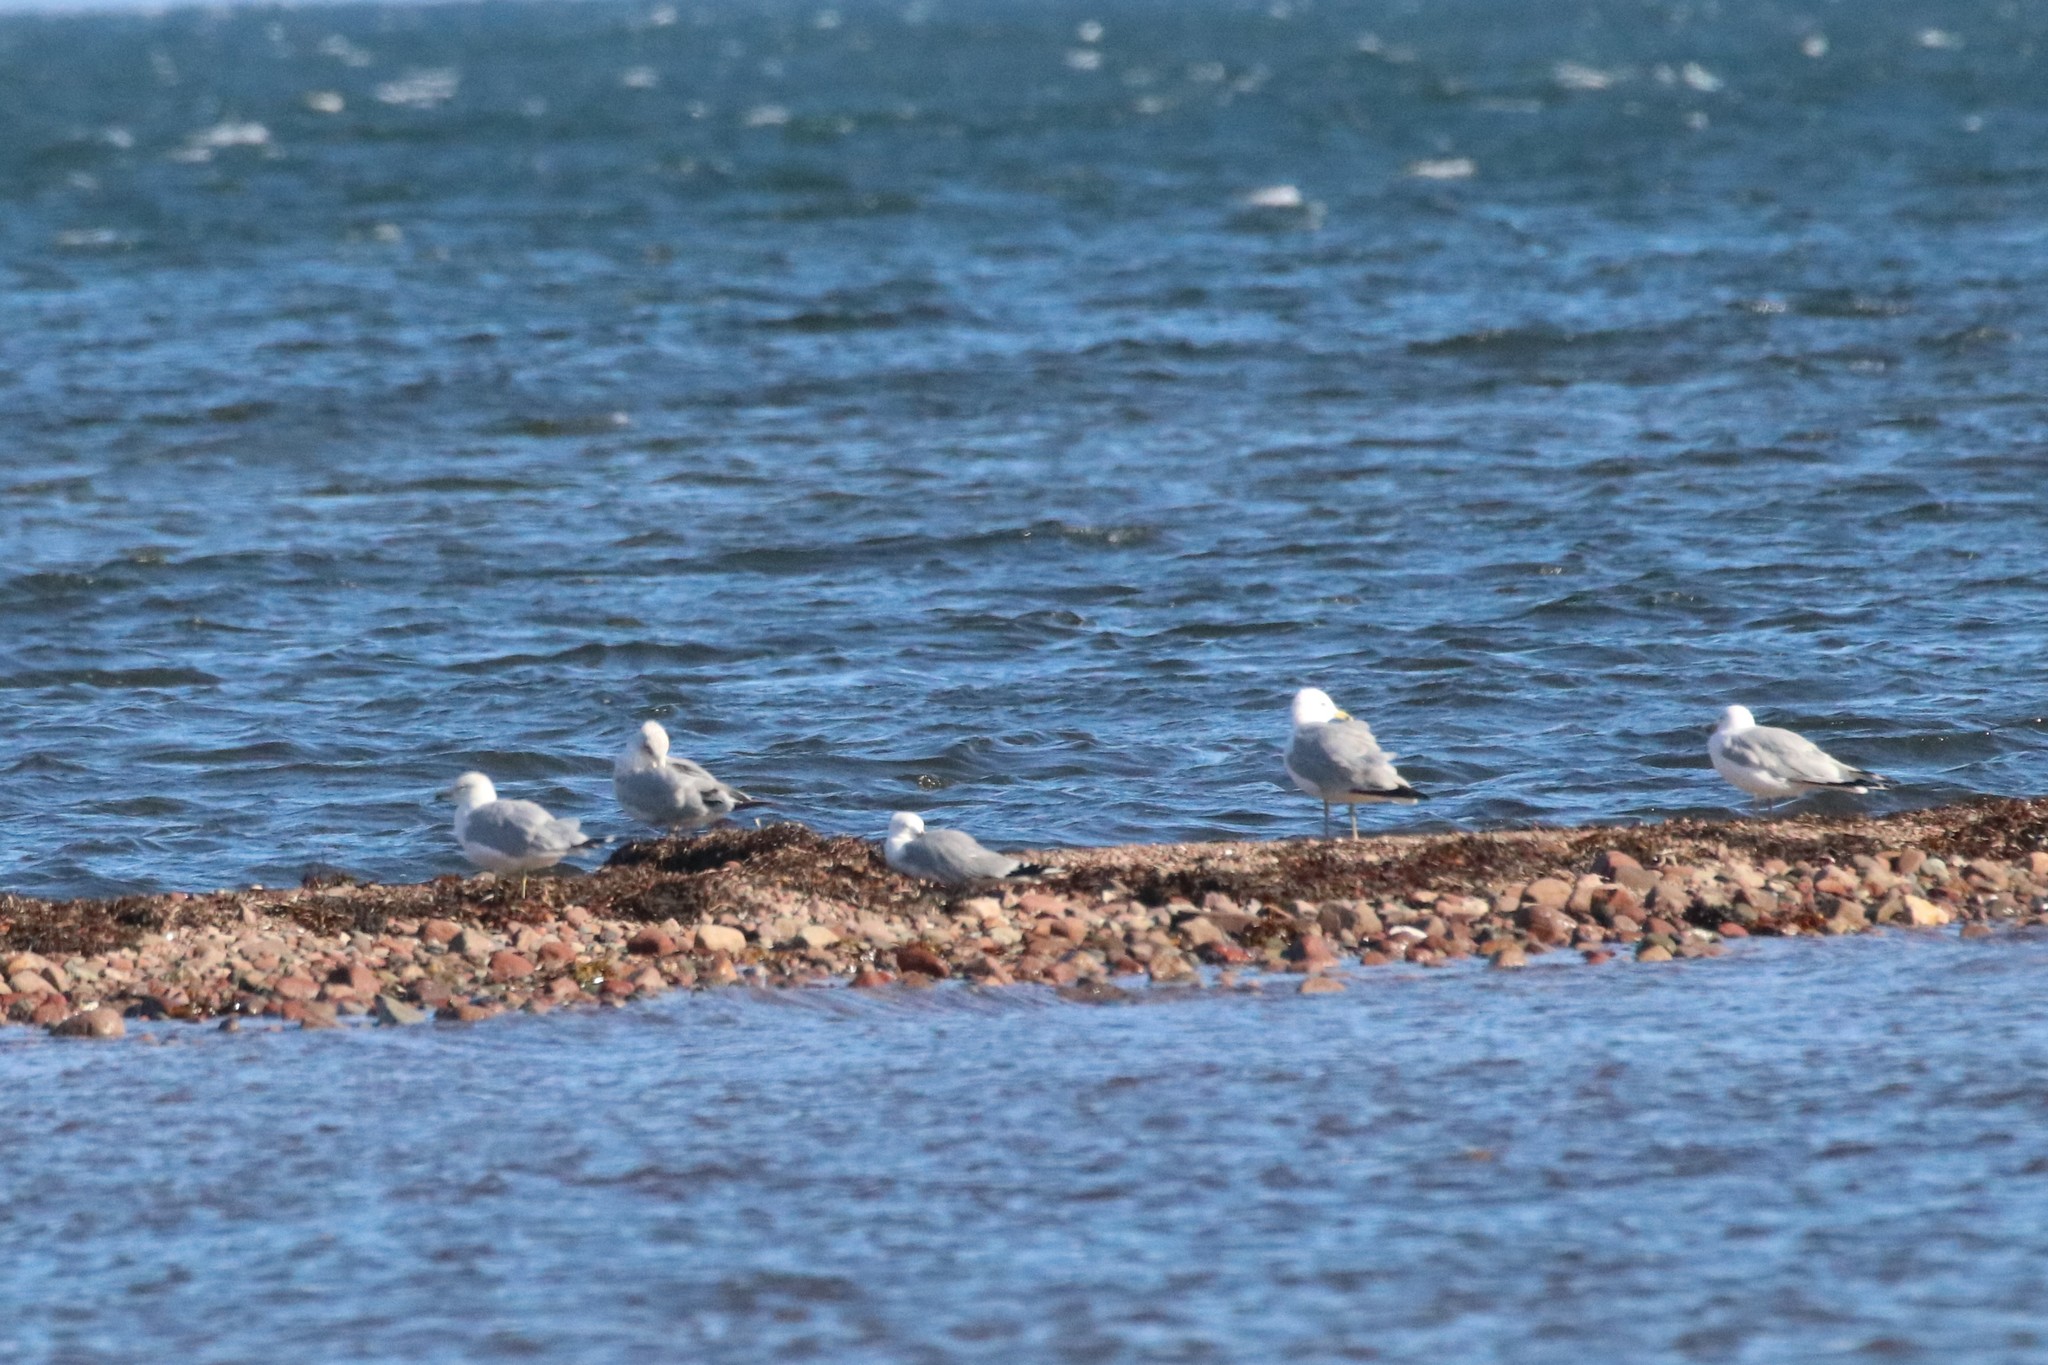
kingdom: Animalia
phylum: Chordata
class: Aves
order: Charadriiformes
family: Laridae
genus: Larus
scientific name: Larus delawarensis
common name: Ring-billed gull
